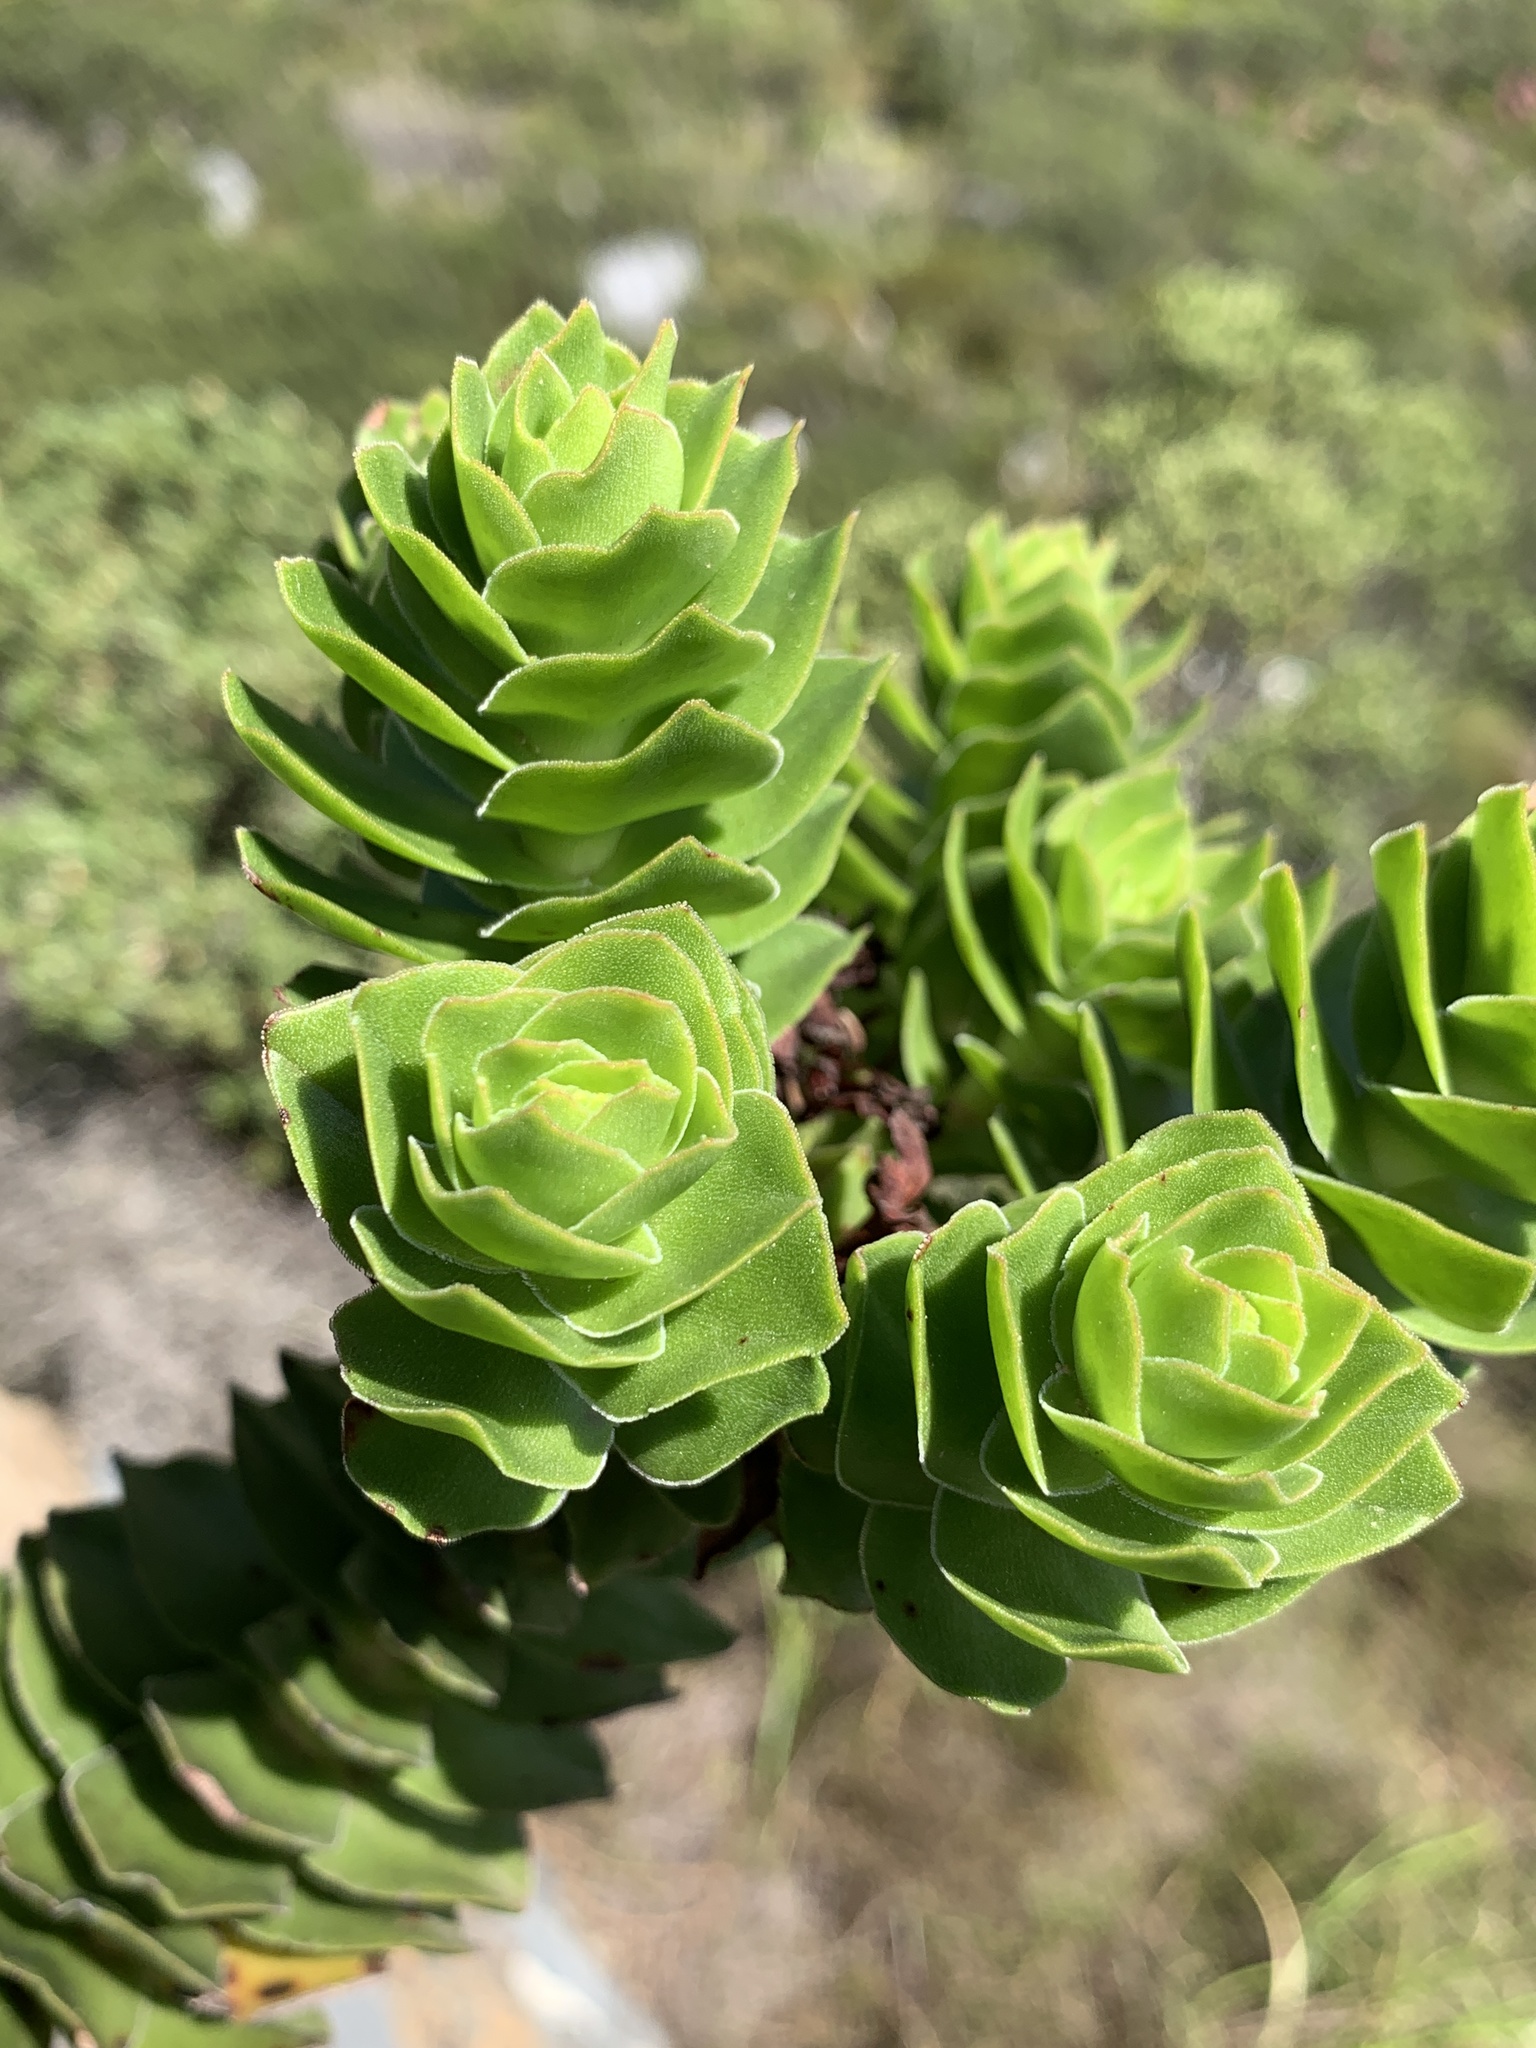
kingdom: Plantae
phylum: Tracheophyta
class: Magnoliopsida
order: Saxifragales
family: Crassulaceae
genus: Crassula
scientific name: Crassula coccinea
